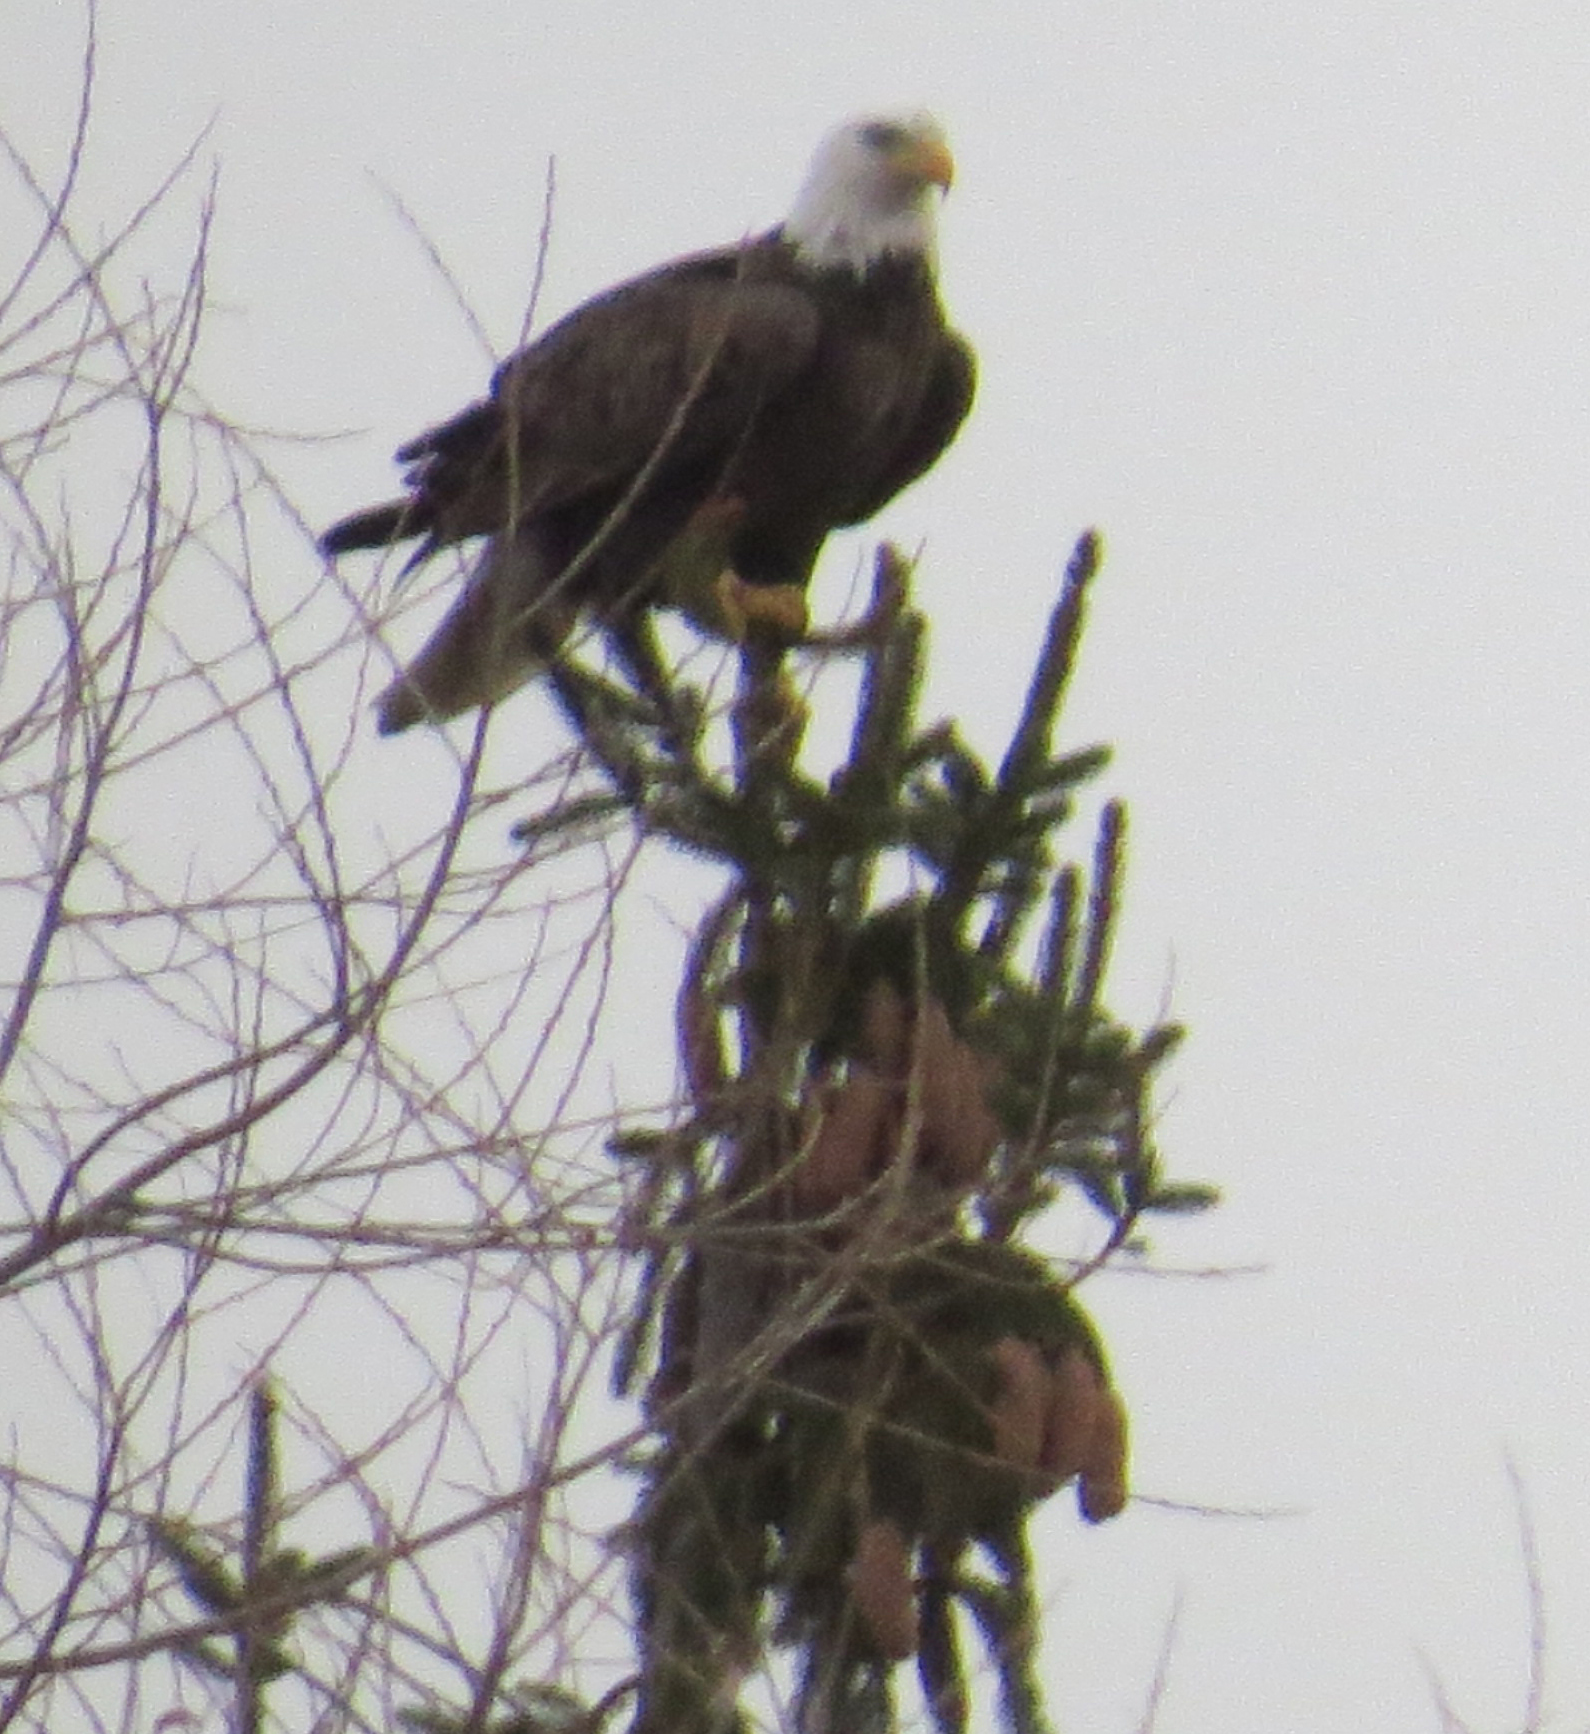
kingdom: Animalia
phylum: Chordata
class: Aves
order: Accipitriformes
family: Accipitridae
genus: Haliaeetus
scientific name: Haliaeetus leucocephalus
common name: Bald eagle
